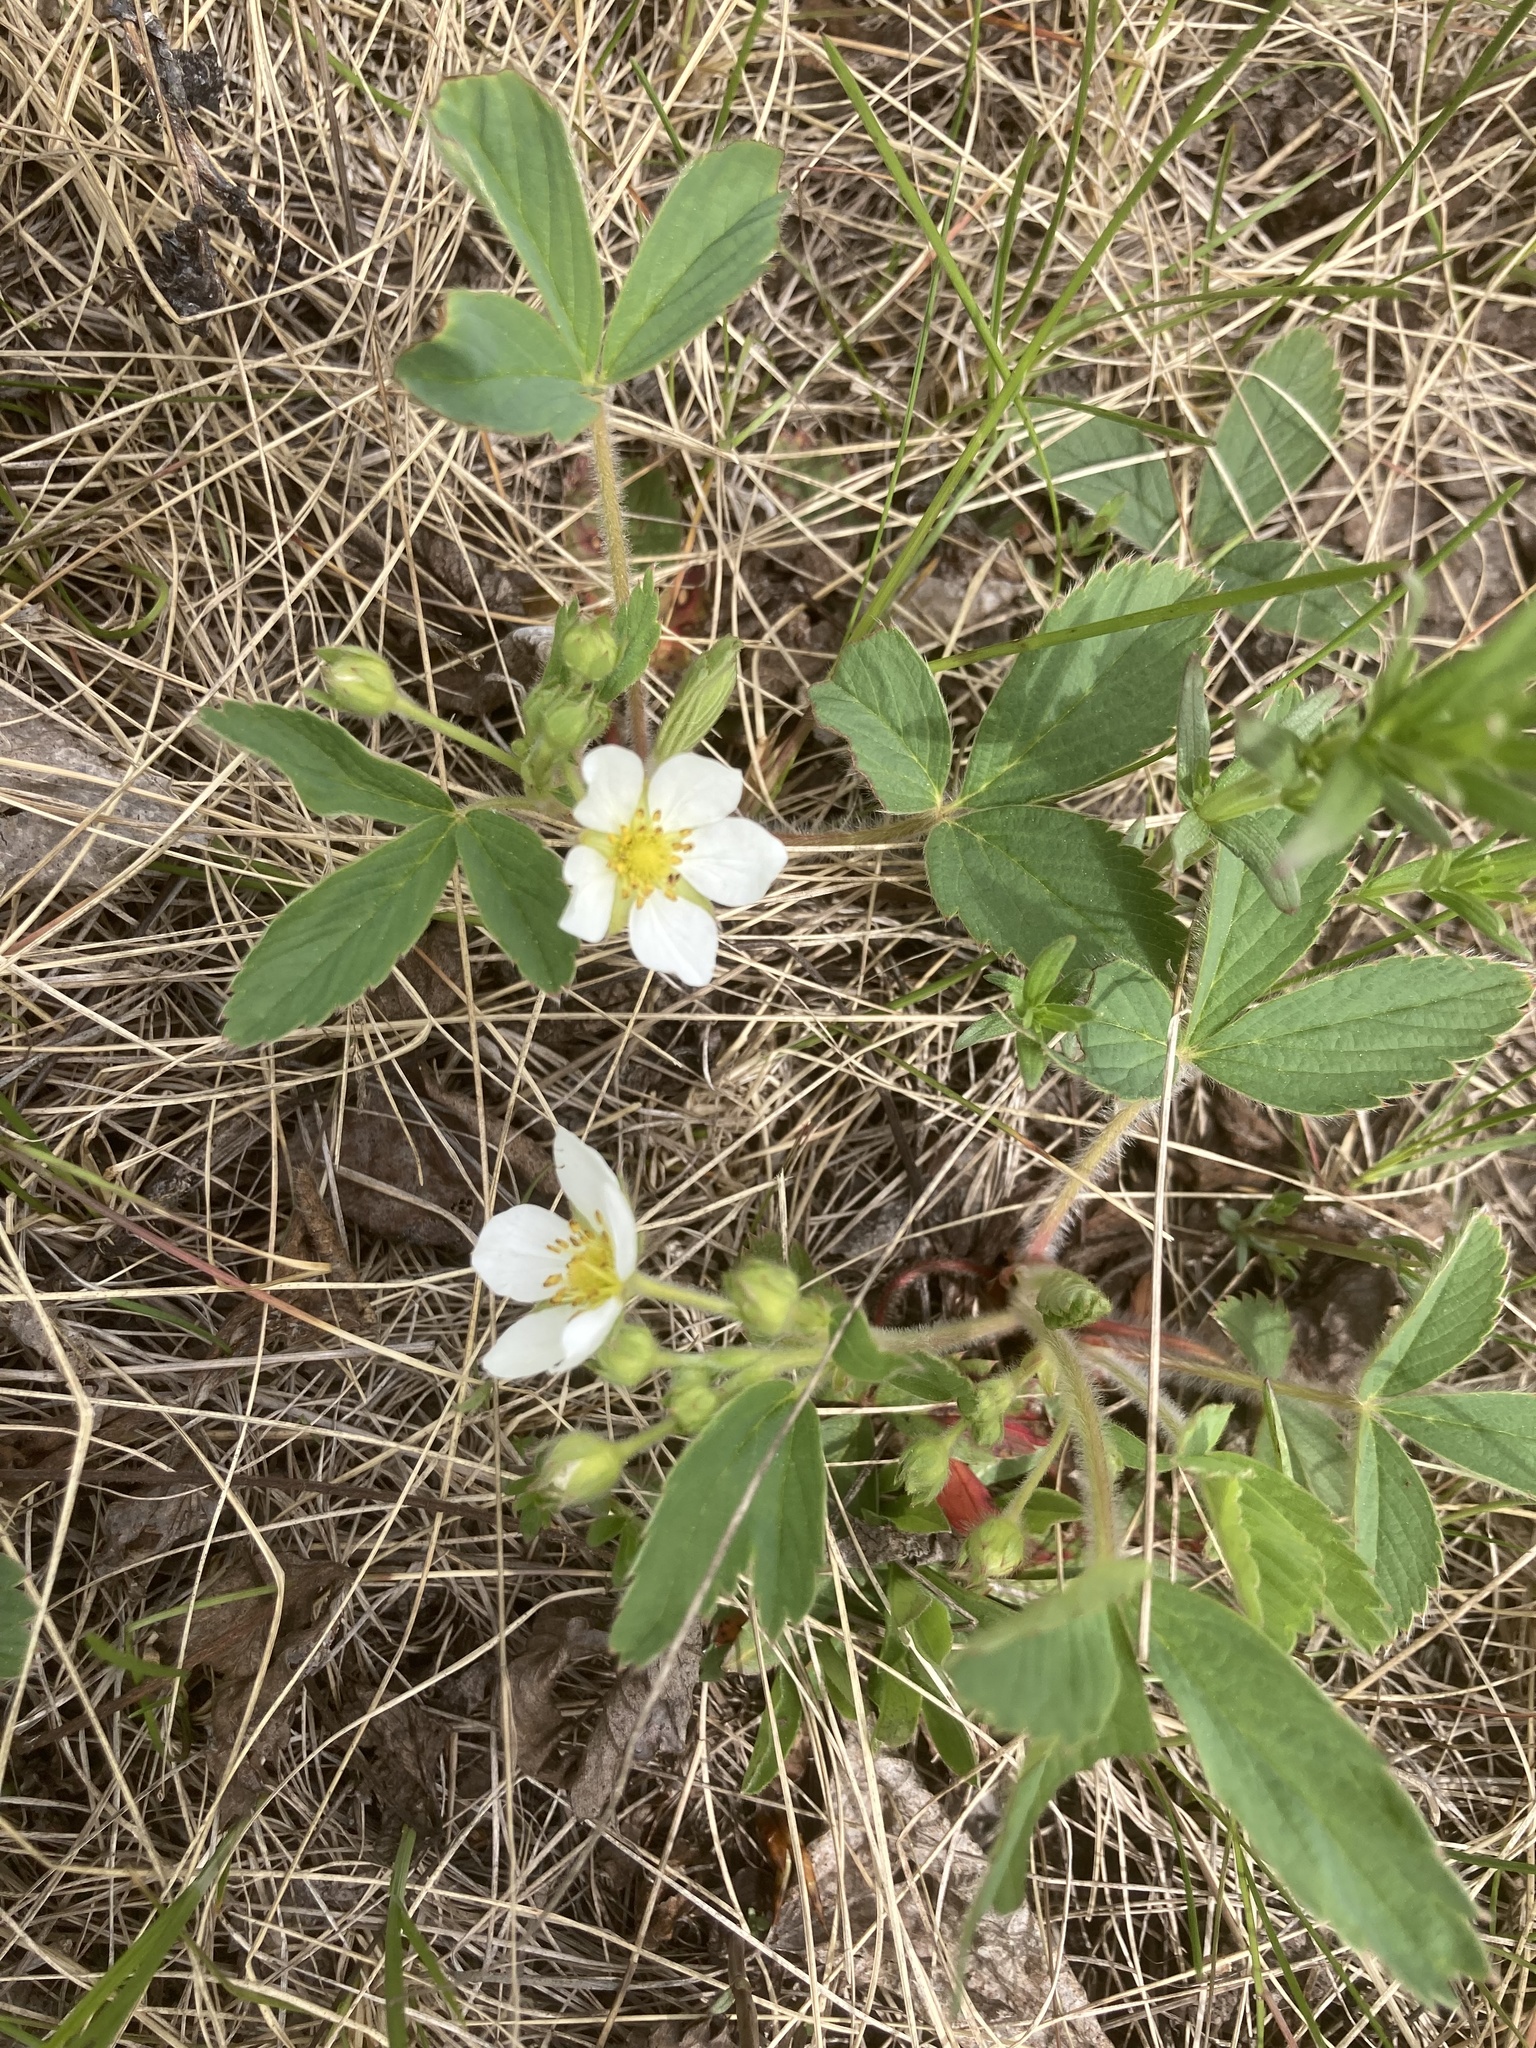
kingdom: Plantae
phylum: Tracheophyta
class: Magnoliopsida
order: Rosales
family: Rosaceae
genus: Fragaria
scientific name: Fragaria virginiana
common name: Thickleaved wild strawberry
